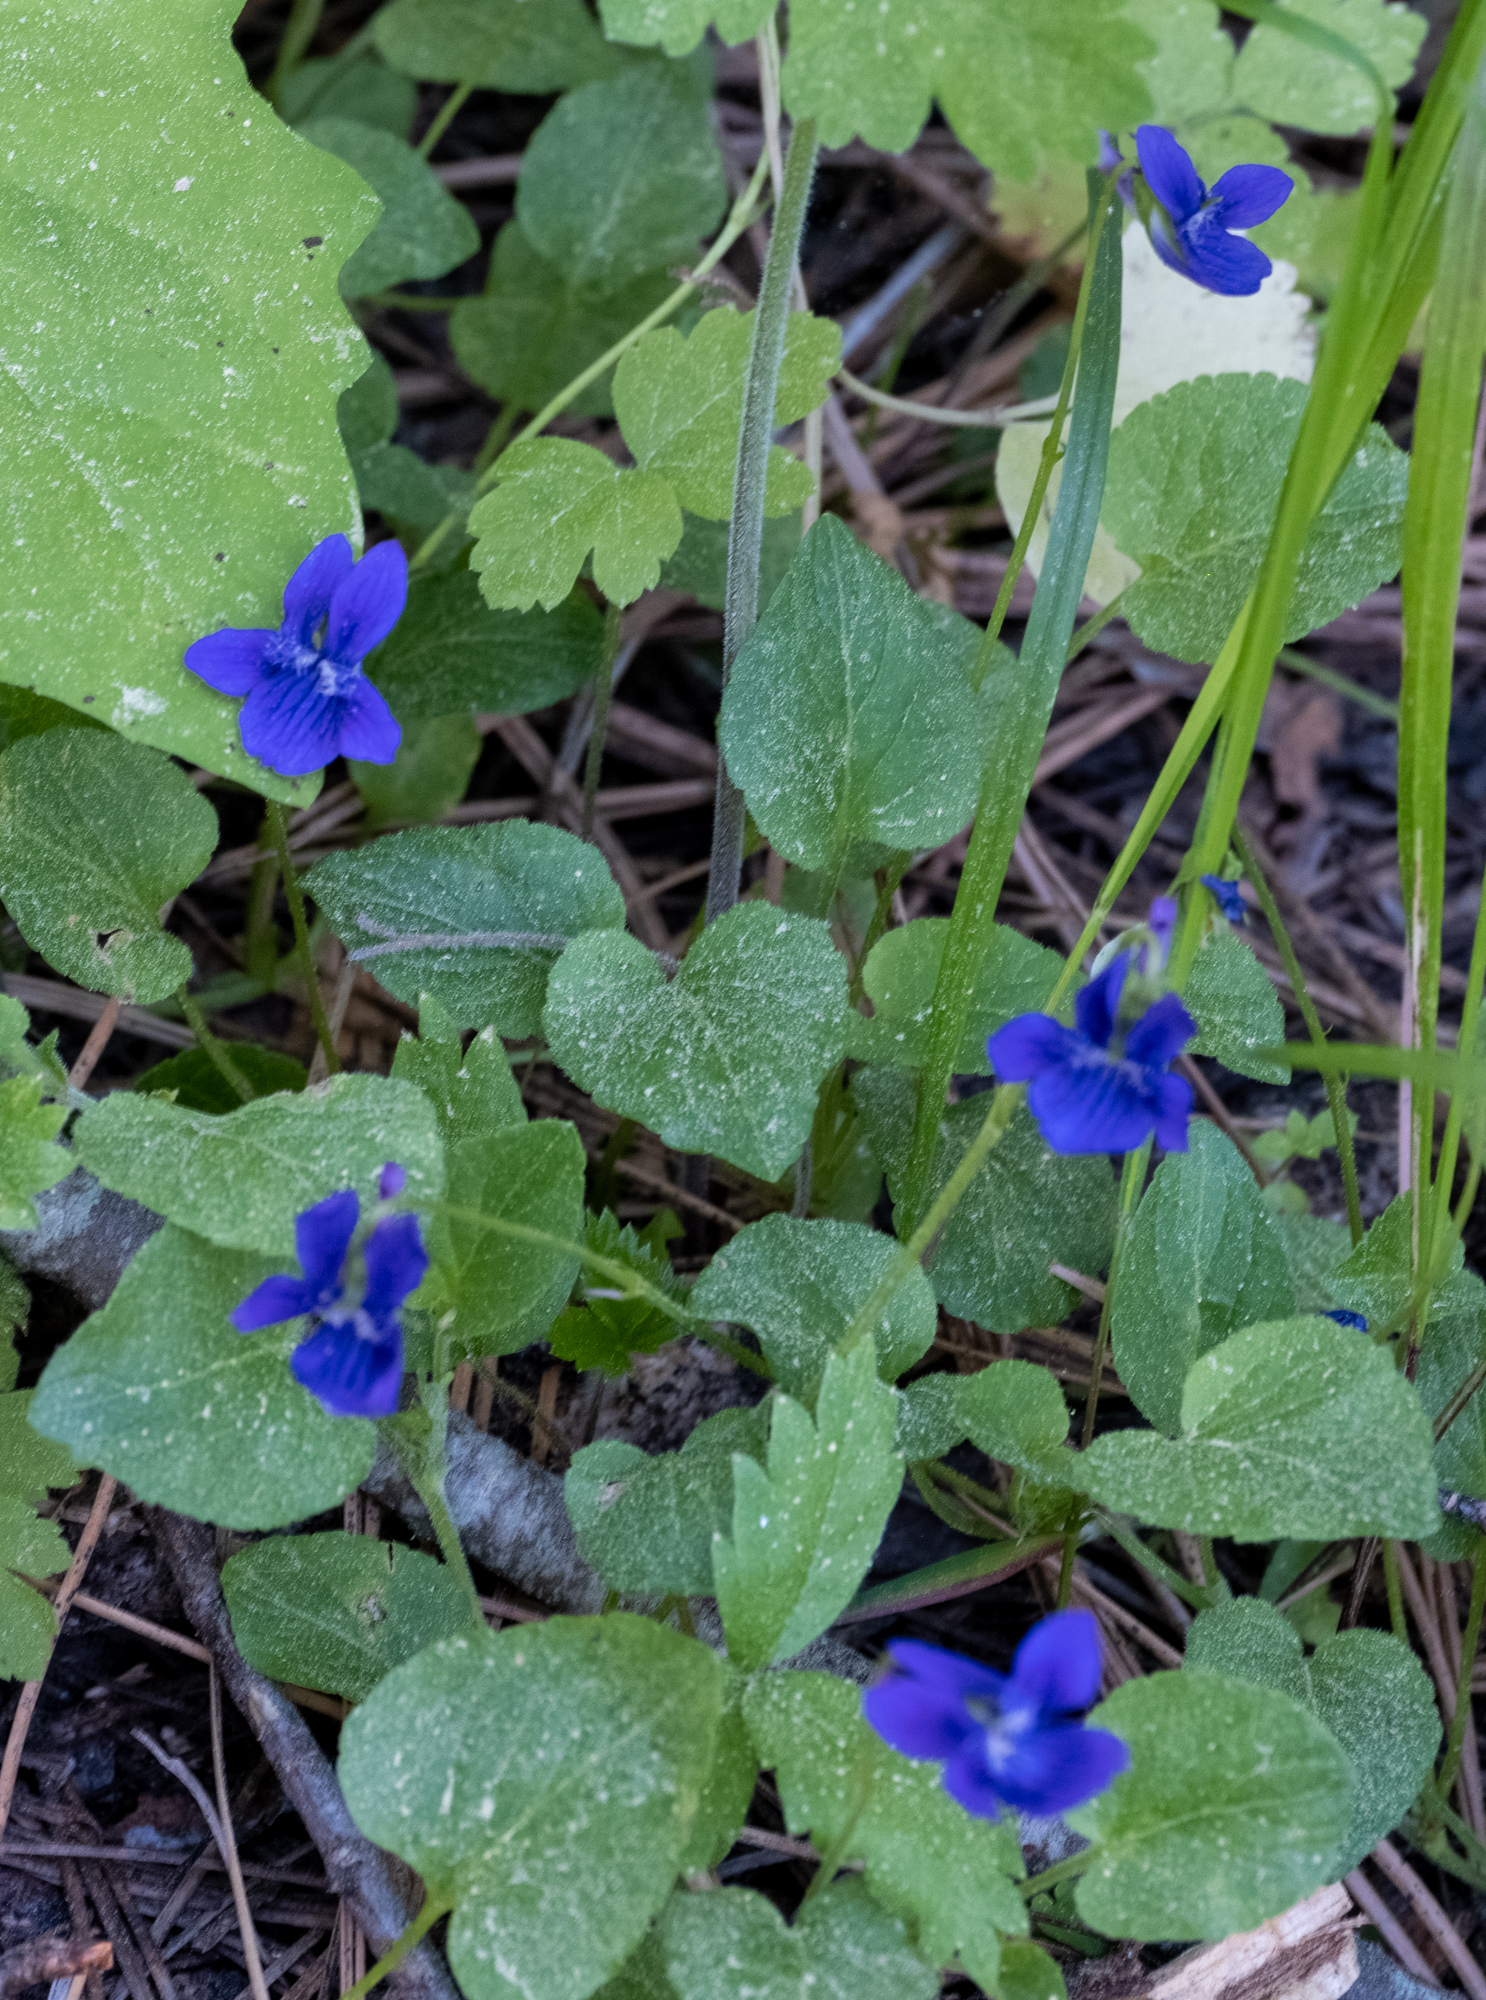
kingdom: Plantae
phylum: Tracheophyta
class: Magnoliopsida
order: Malpighiales
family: Violaceae
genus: Viola
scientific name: Viola adunca
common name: Sand violet
